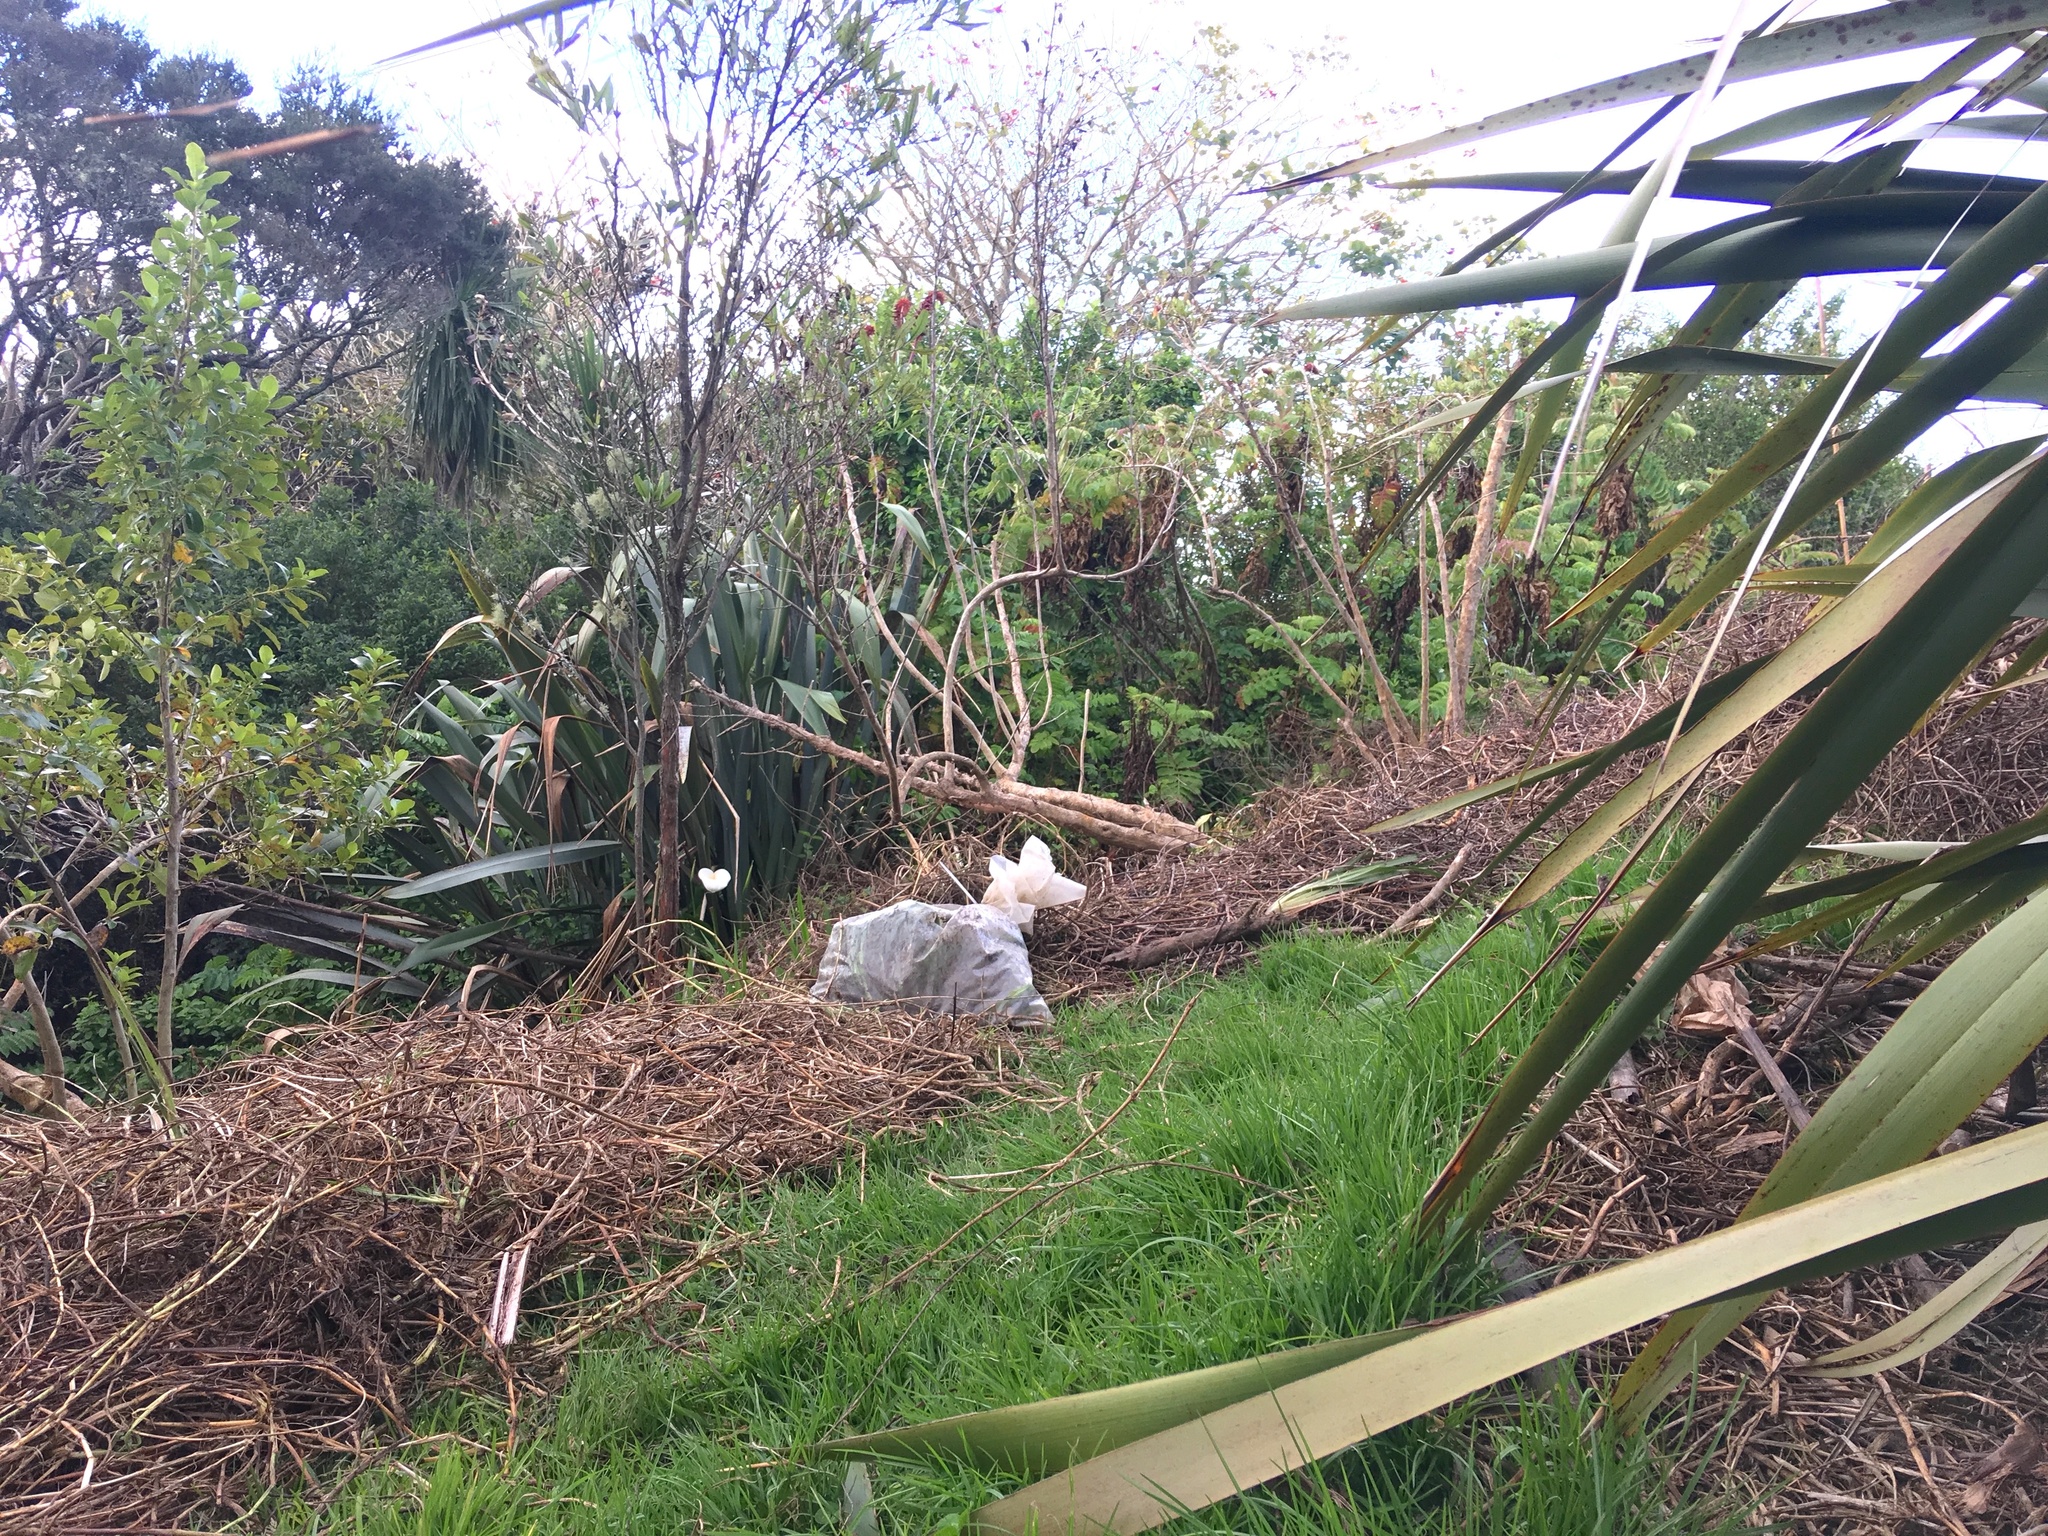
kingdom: Plantae
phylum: Tracheophyta
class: Liliopsida
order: Poales
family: Poaceae
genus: Cenchrus
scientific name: Cenchrus clandestinus
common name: Kikuyugrass
